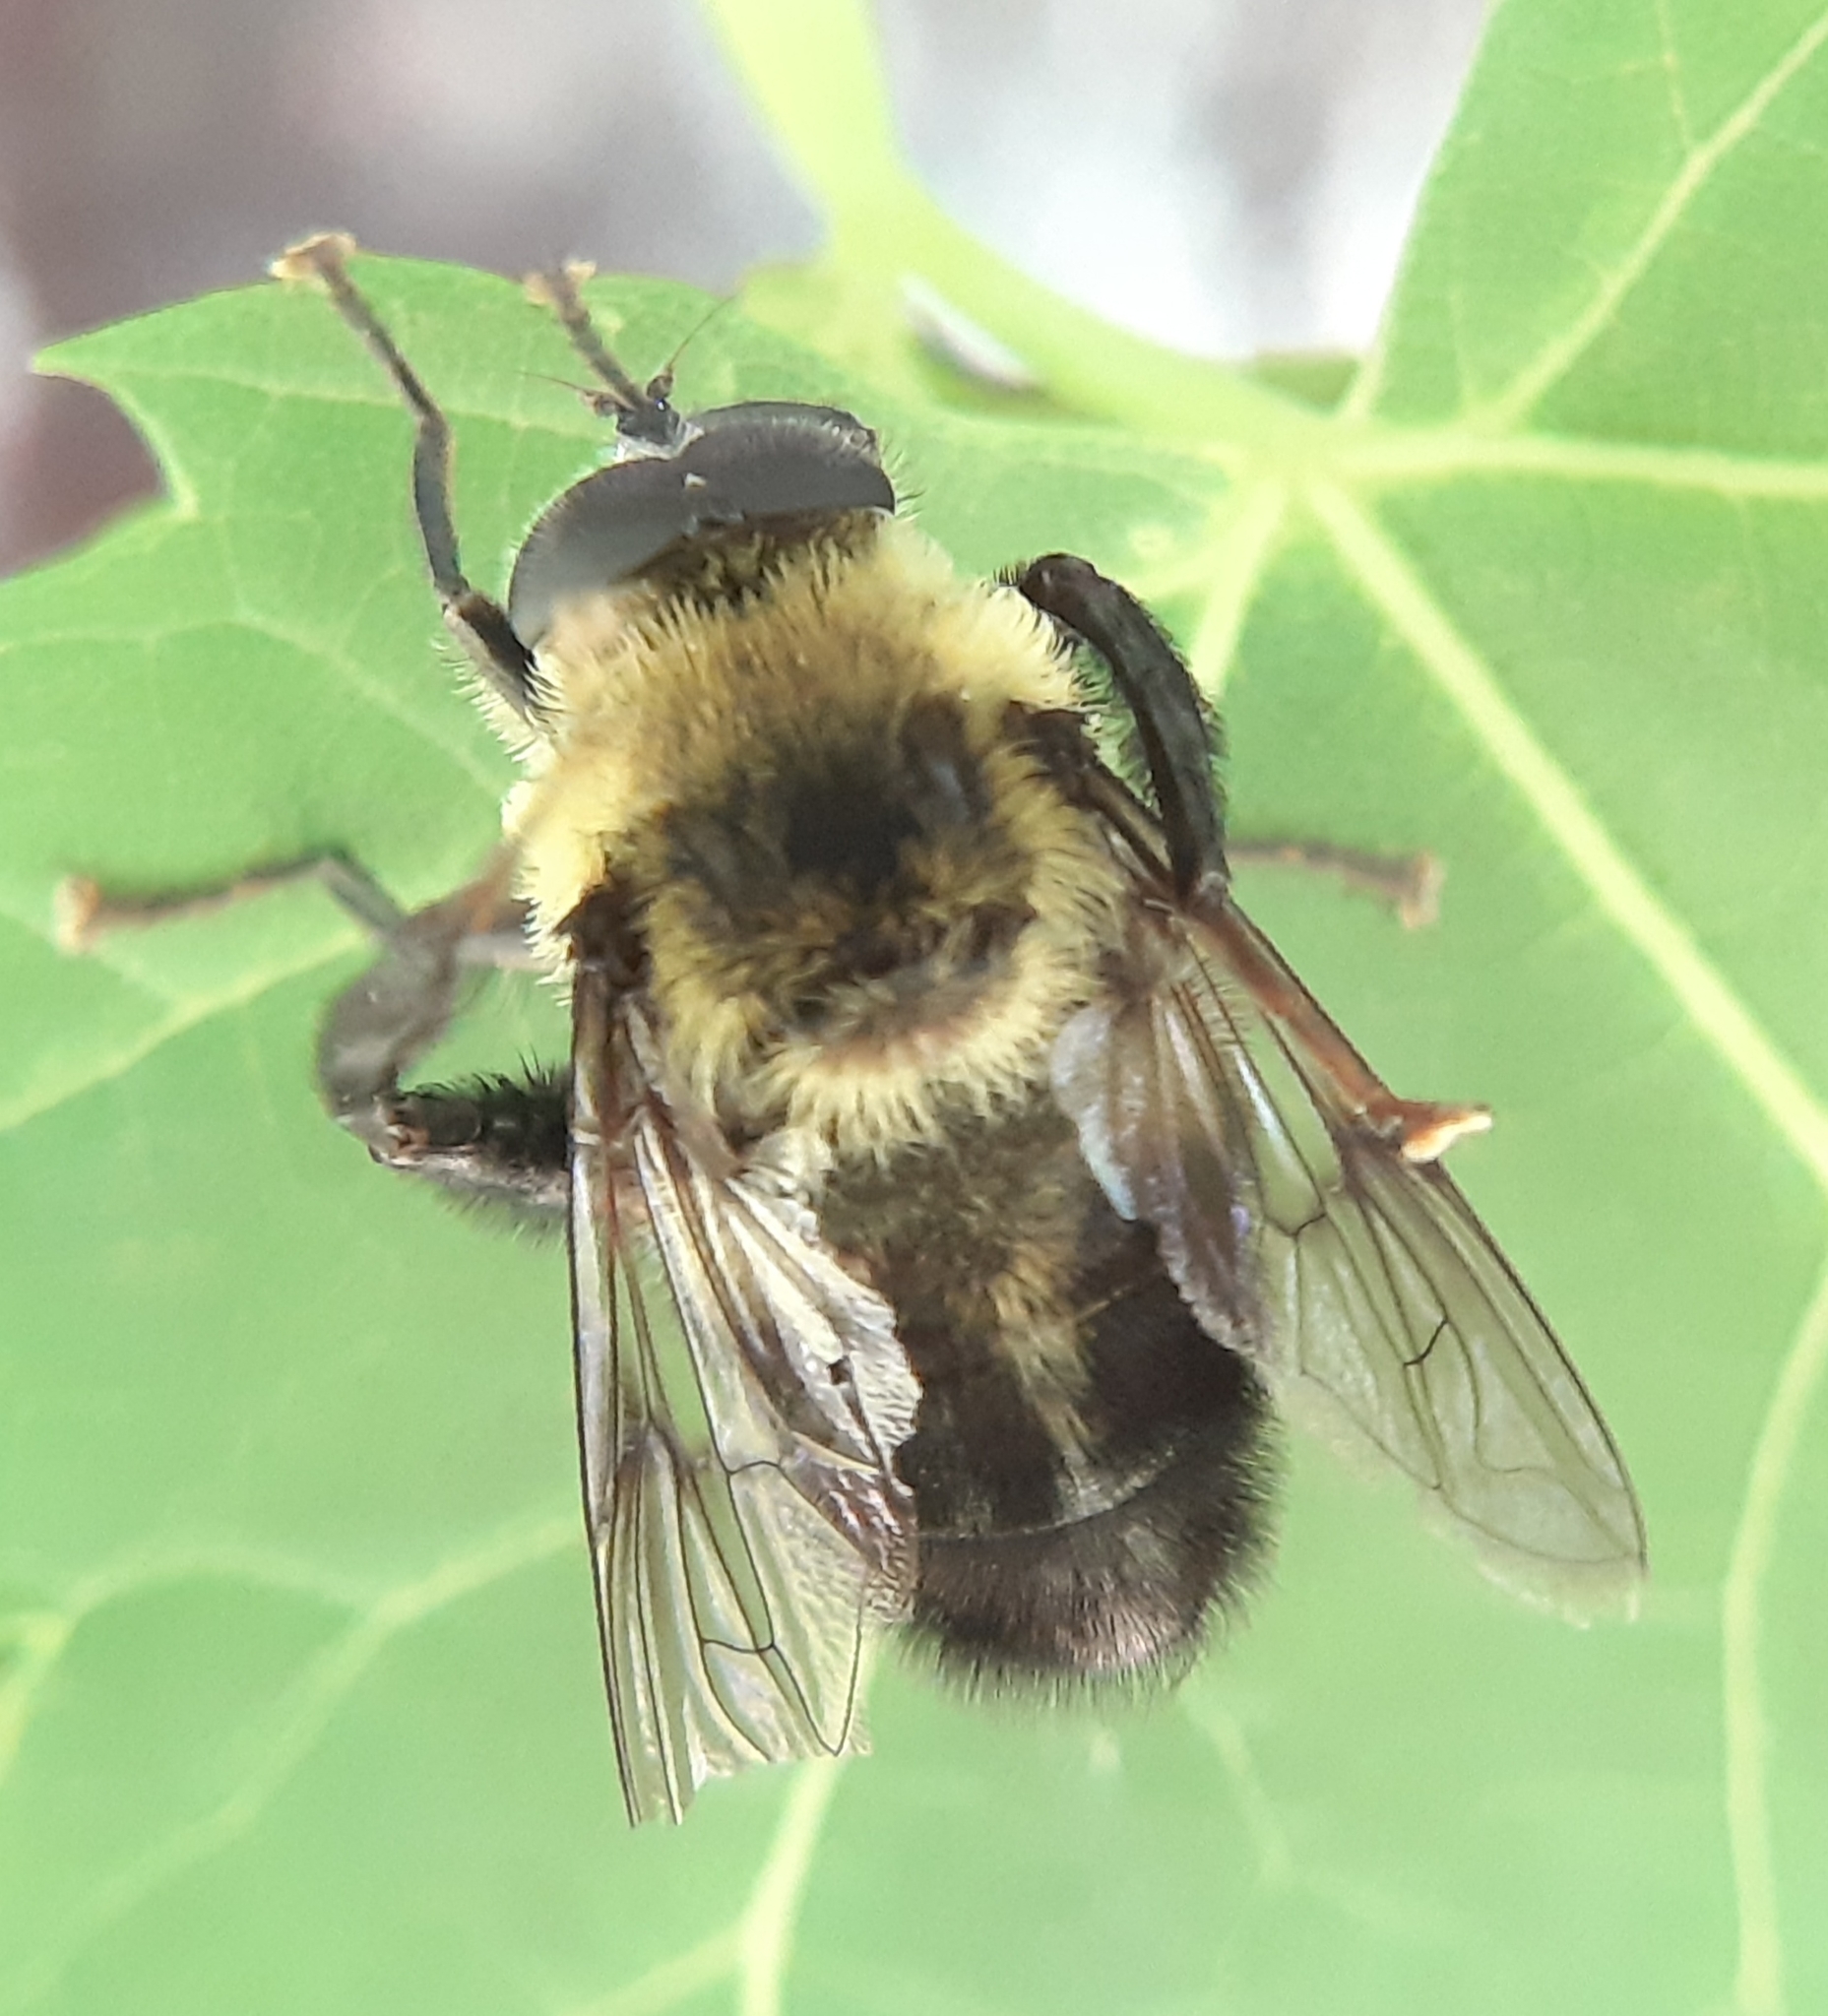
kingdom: Animalia
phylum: Arthropoda
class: Insecta
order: Diptera
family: Syrphidae
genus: Imatisma
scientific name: Imatisma posticata
